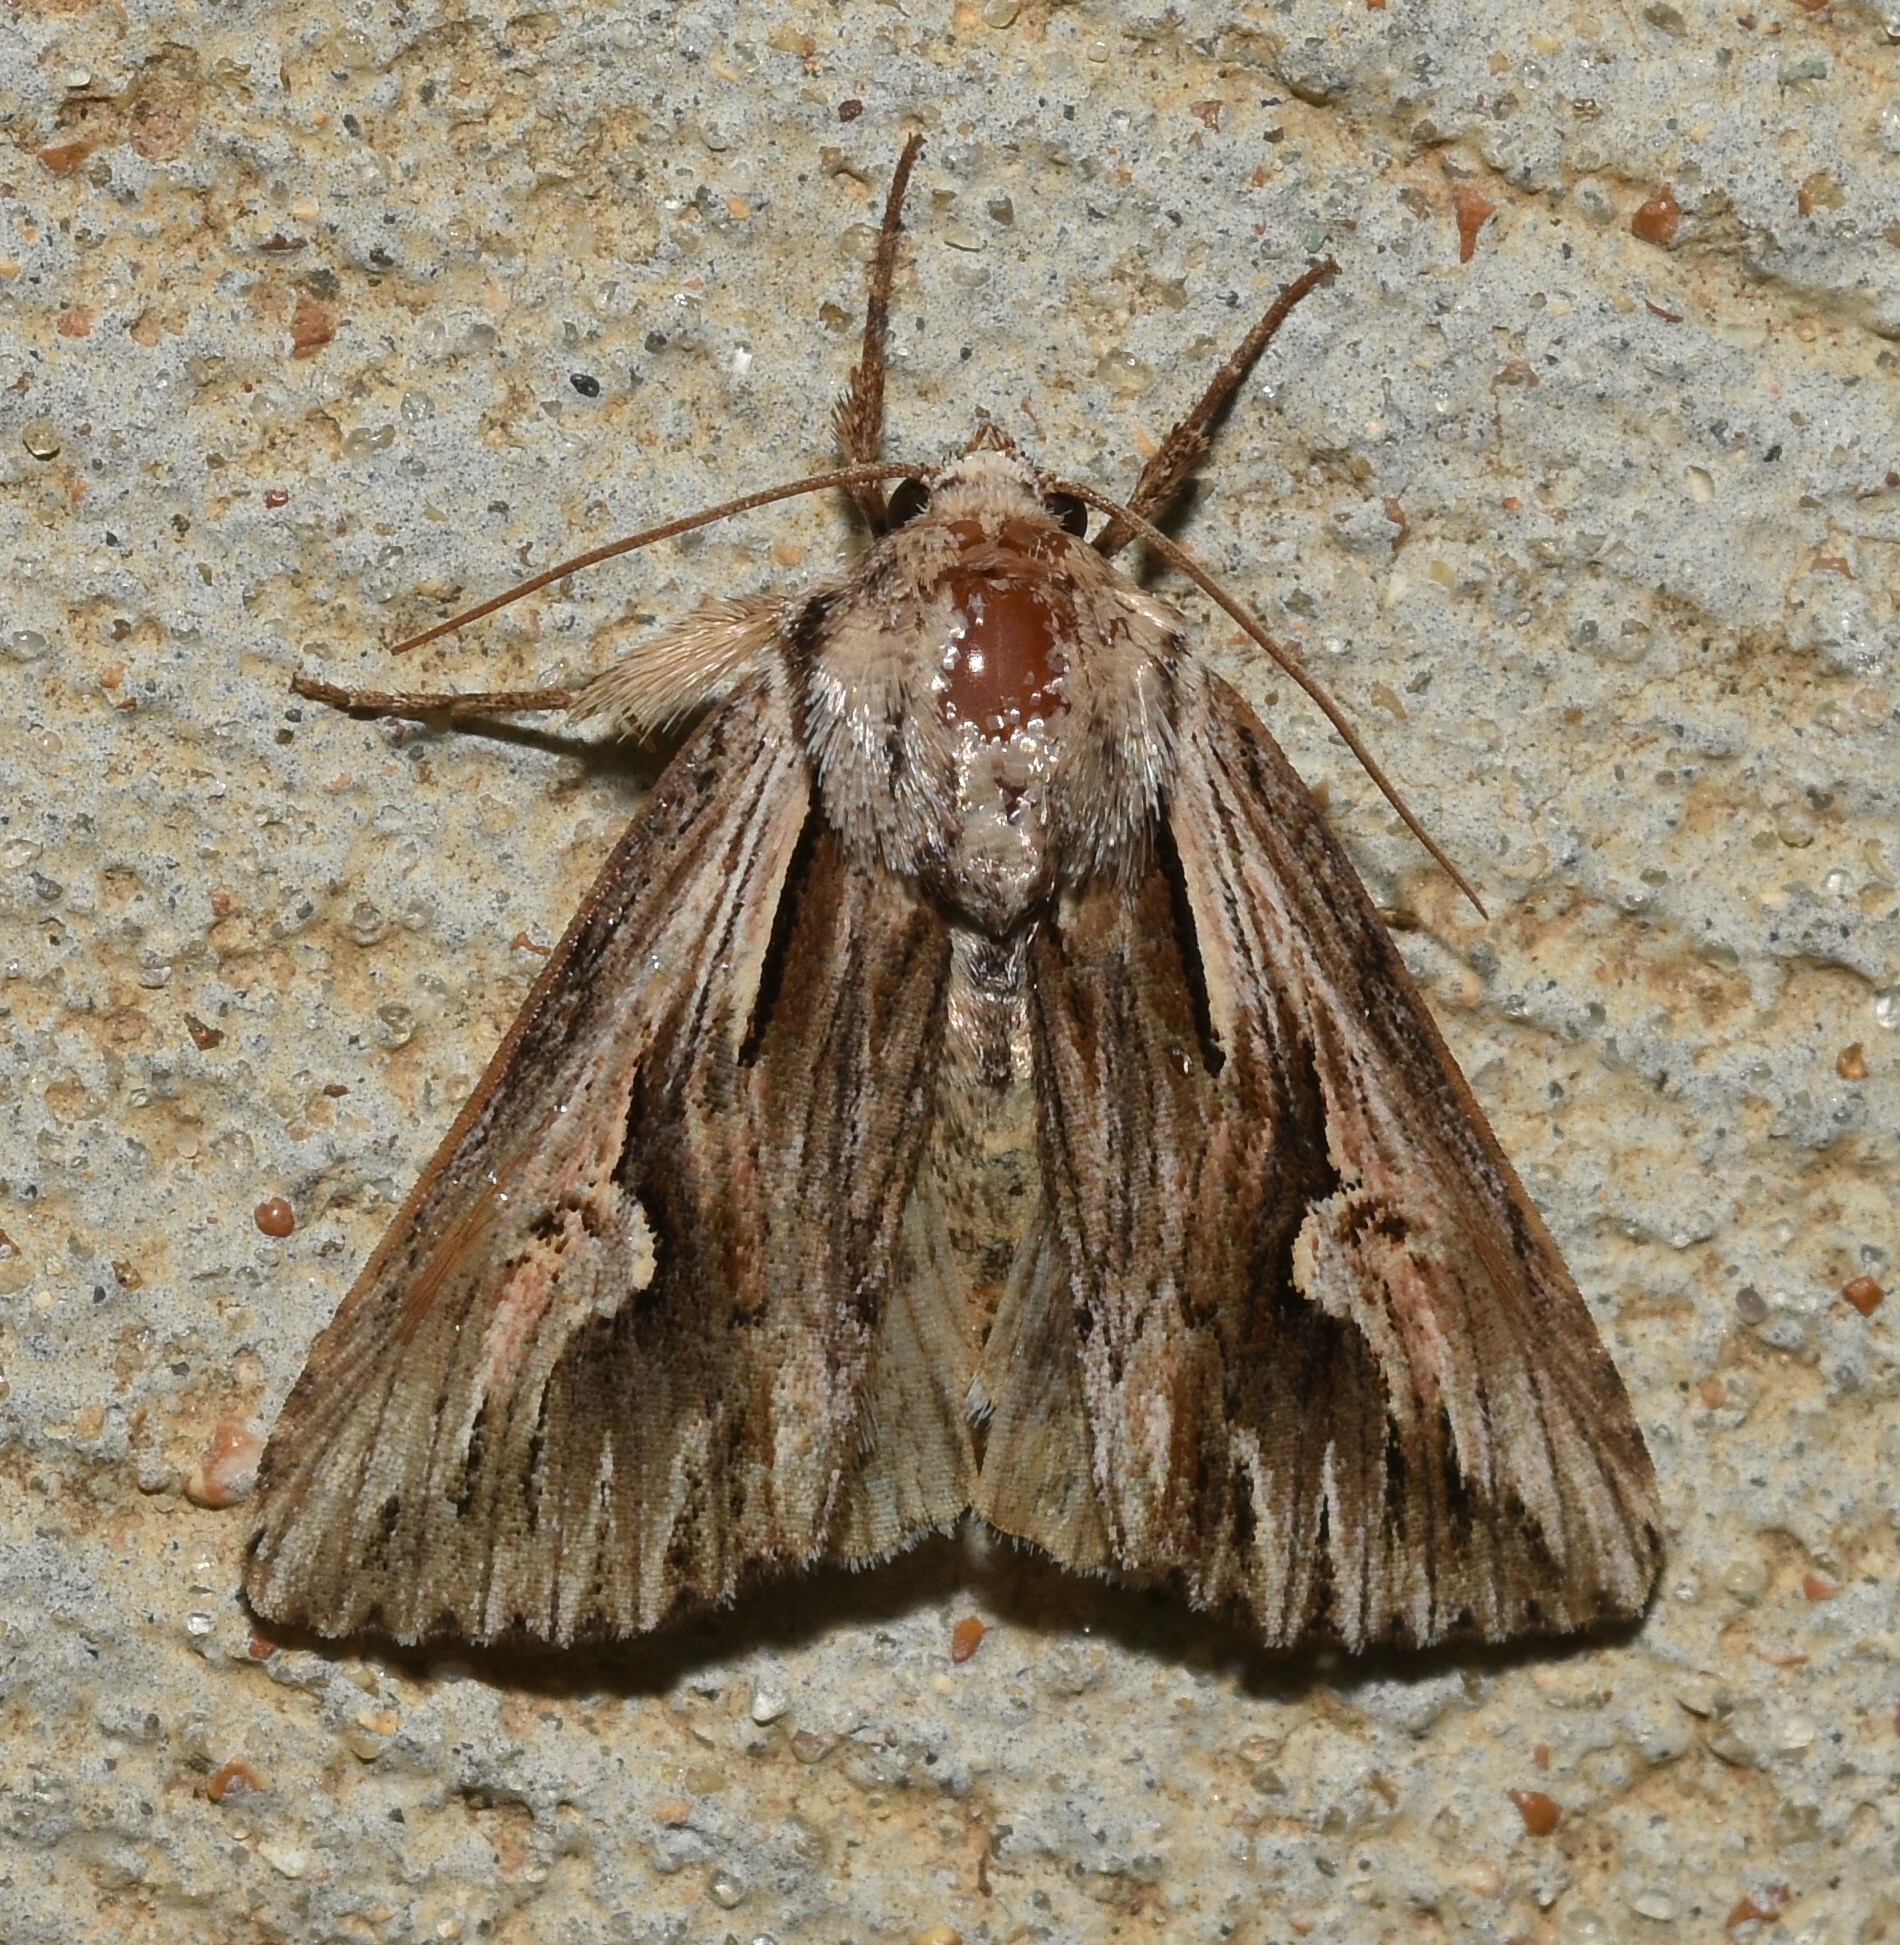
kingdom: Animalia
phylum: Arthropoda
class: Insecta
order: Lepidoptera
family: Noctuidae
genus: Nedra
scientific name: Nedra ramosula
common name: Gray half-spot
